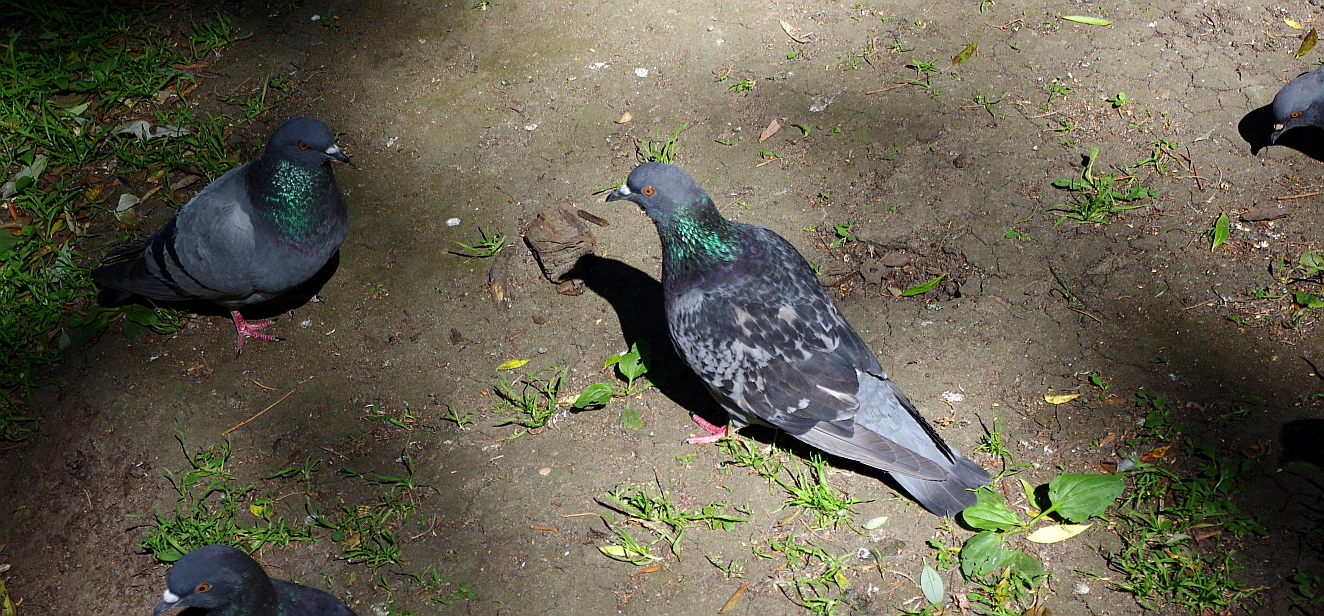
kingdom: Animalia
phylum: Chordata
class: Aves
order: Columbiformes
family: Columbidae
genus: Columba
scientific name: Columba livia
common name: Rock pigeon
